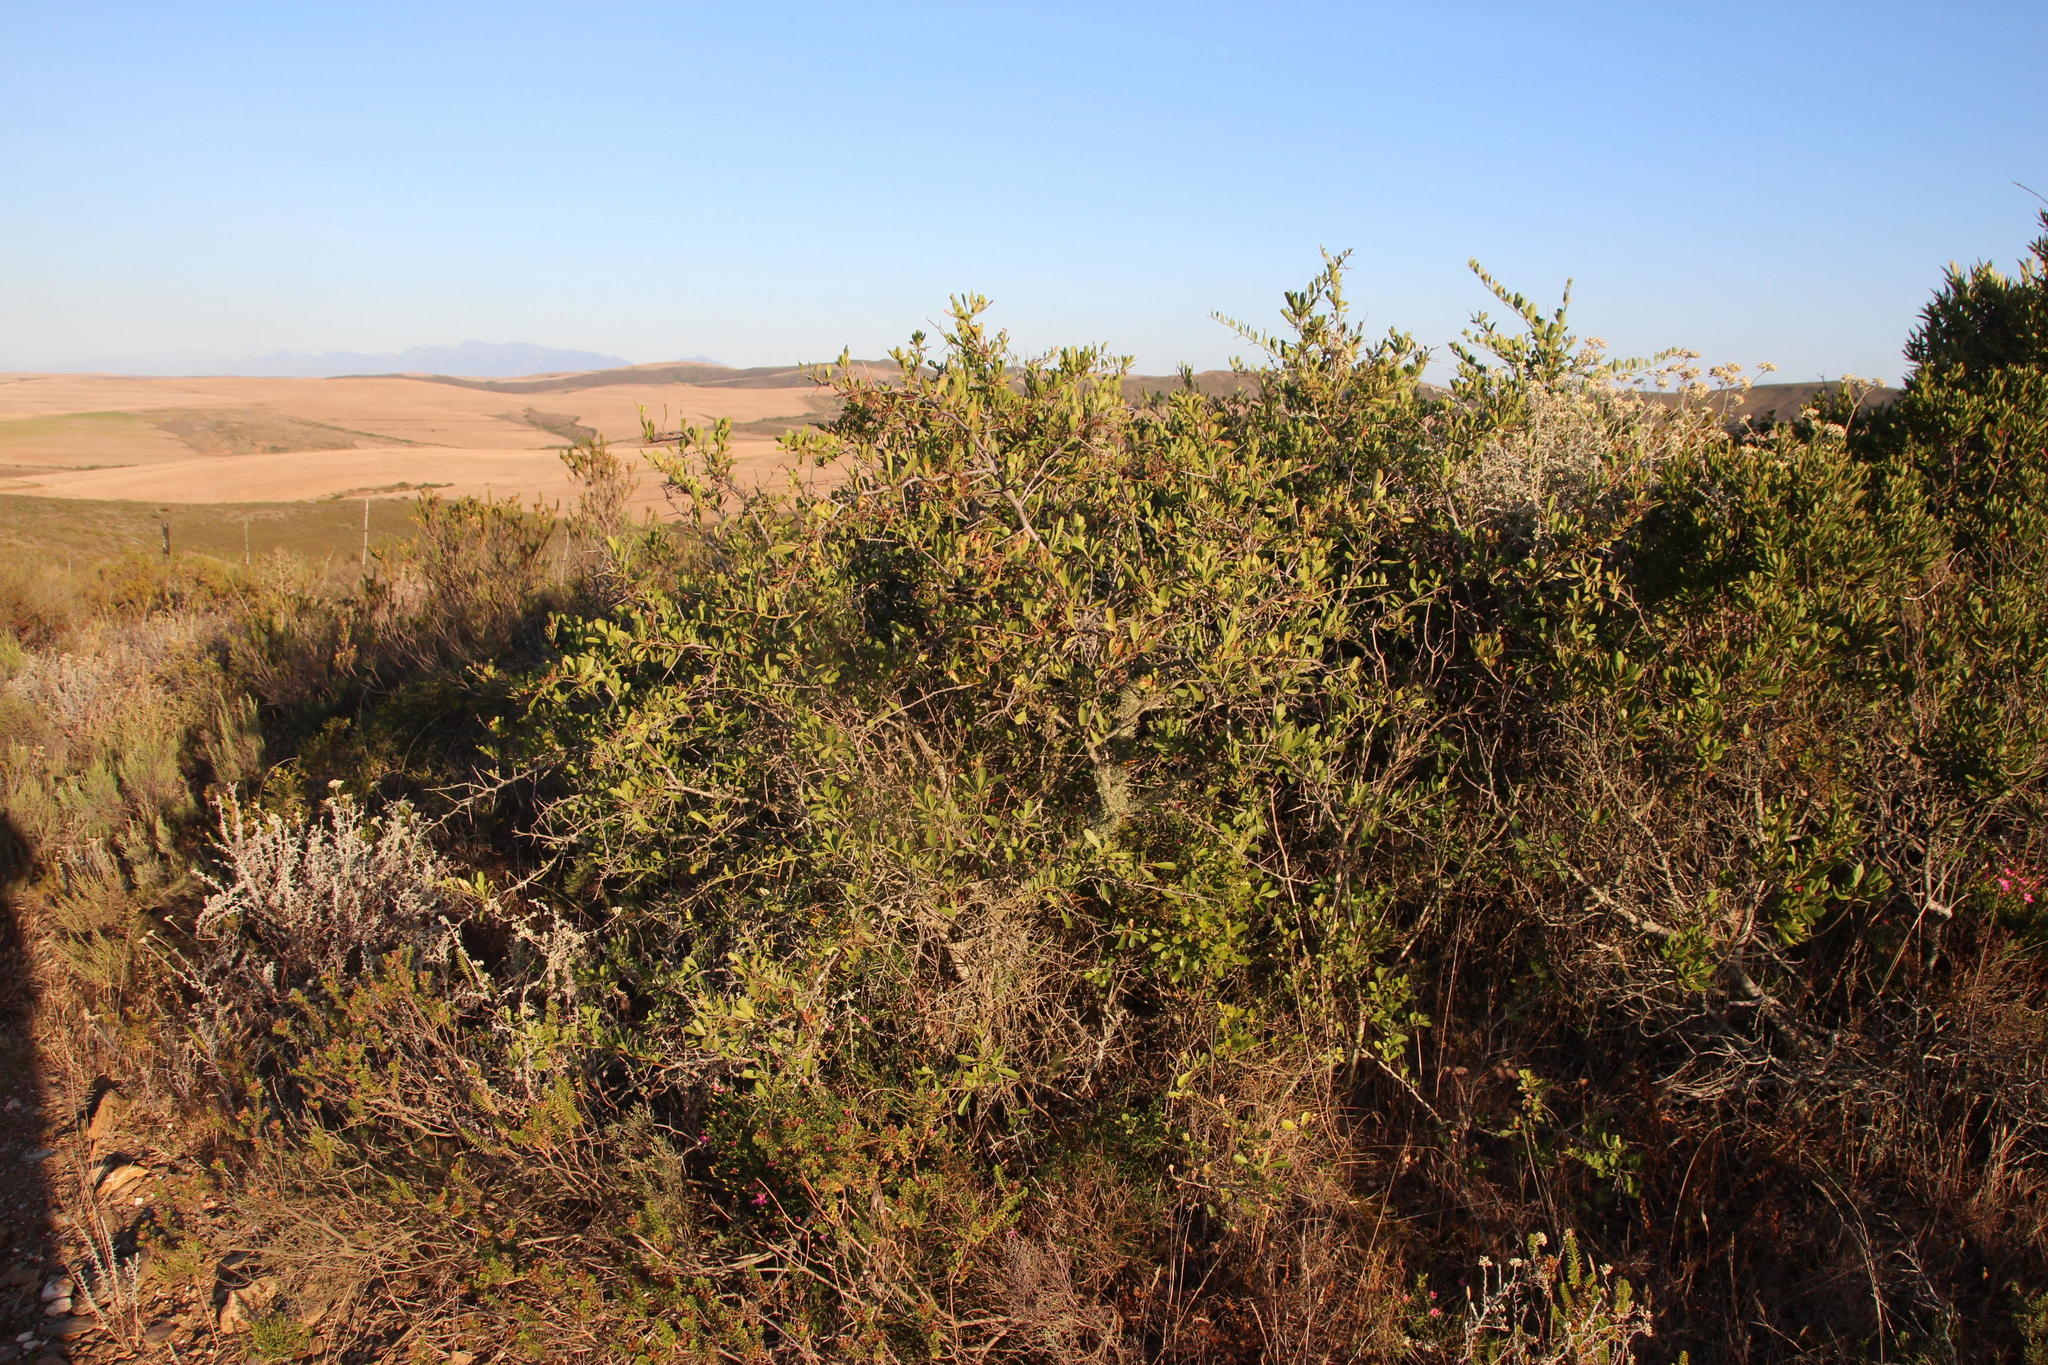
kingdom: Plantae
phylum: Tracheophyta
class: Magnoliopsida
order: Celastrales
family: Celastraceae
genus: Gymnosporia
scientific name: Gymnosporia buxifolia
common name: Common spike-thorn
